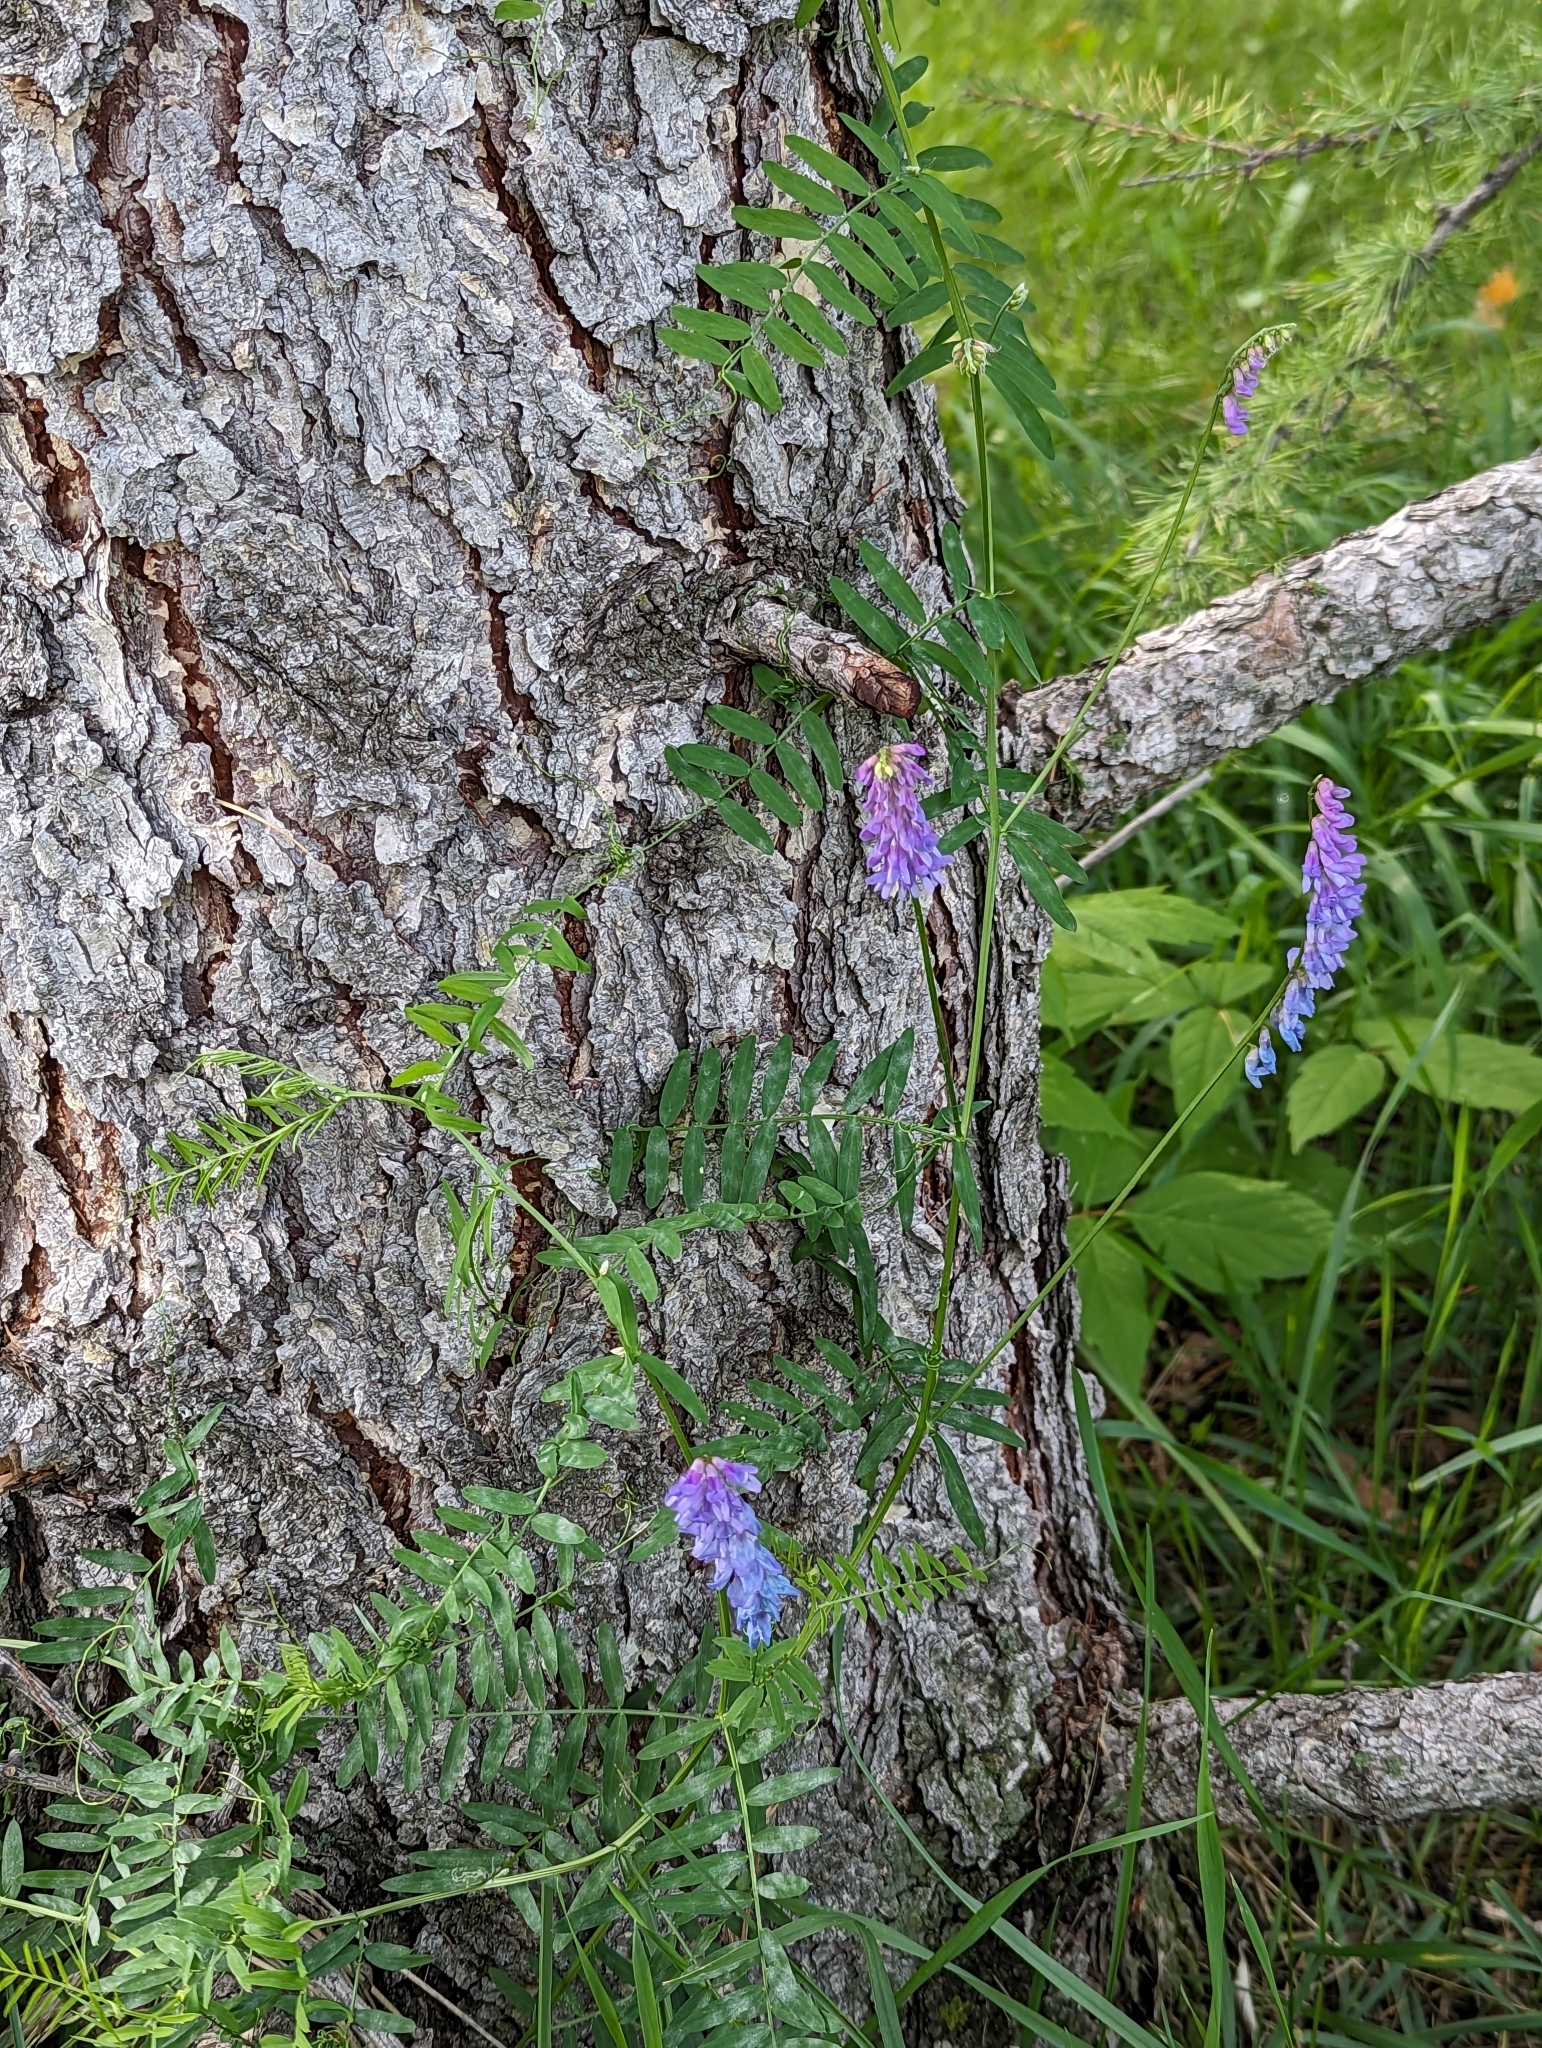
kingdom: Plantae
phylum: Tracheophyta
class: Magnoliopsida
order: Fabales
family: Fabaceae
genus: Vicia
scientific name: Vicia cracca
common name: Bird vetch
